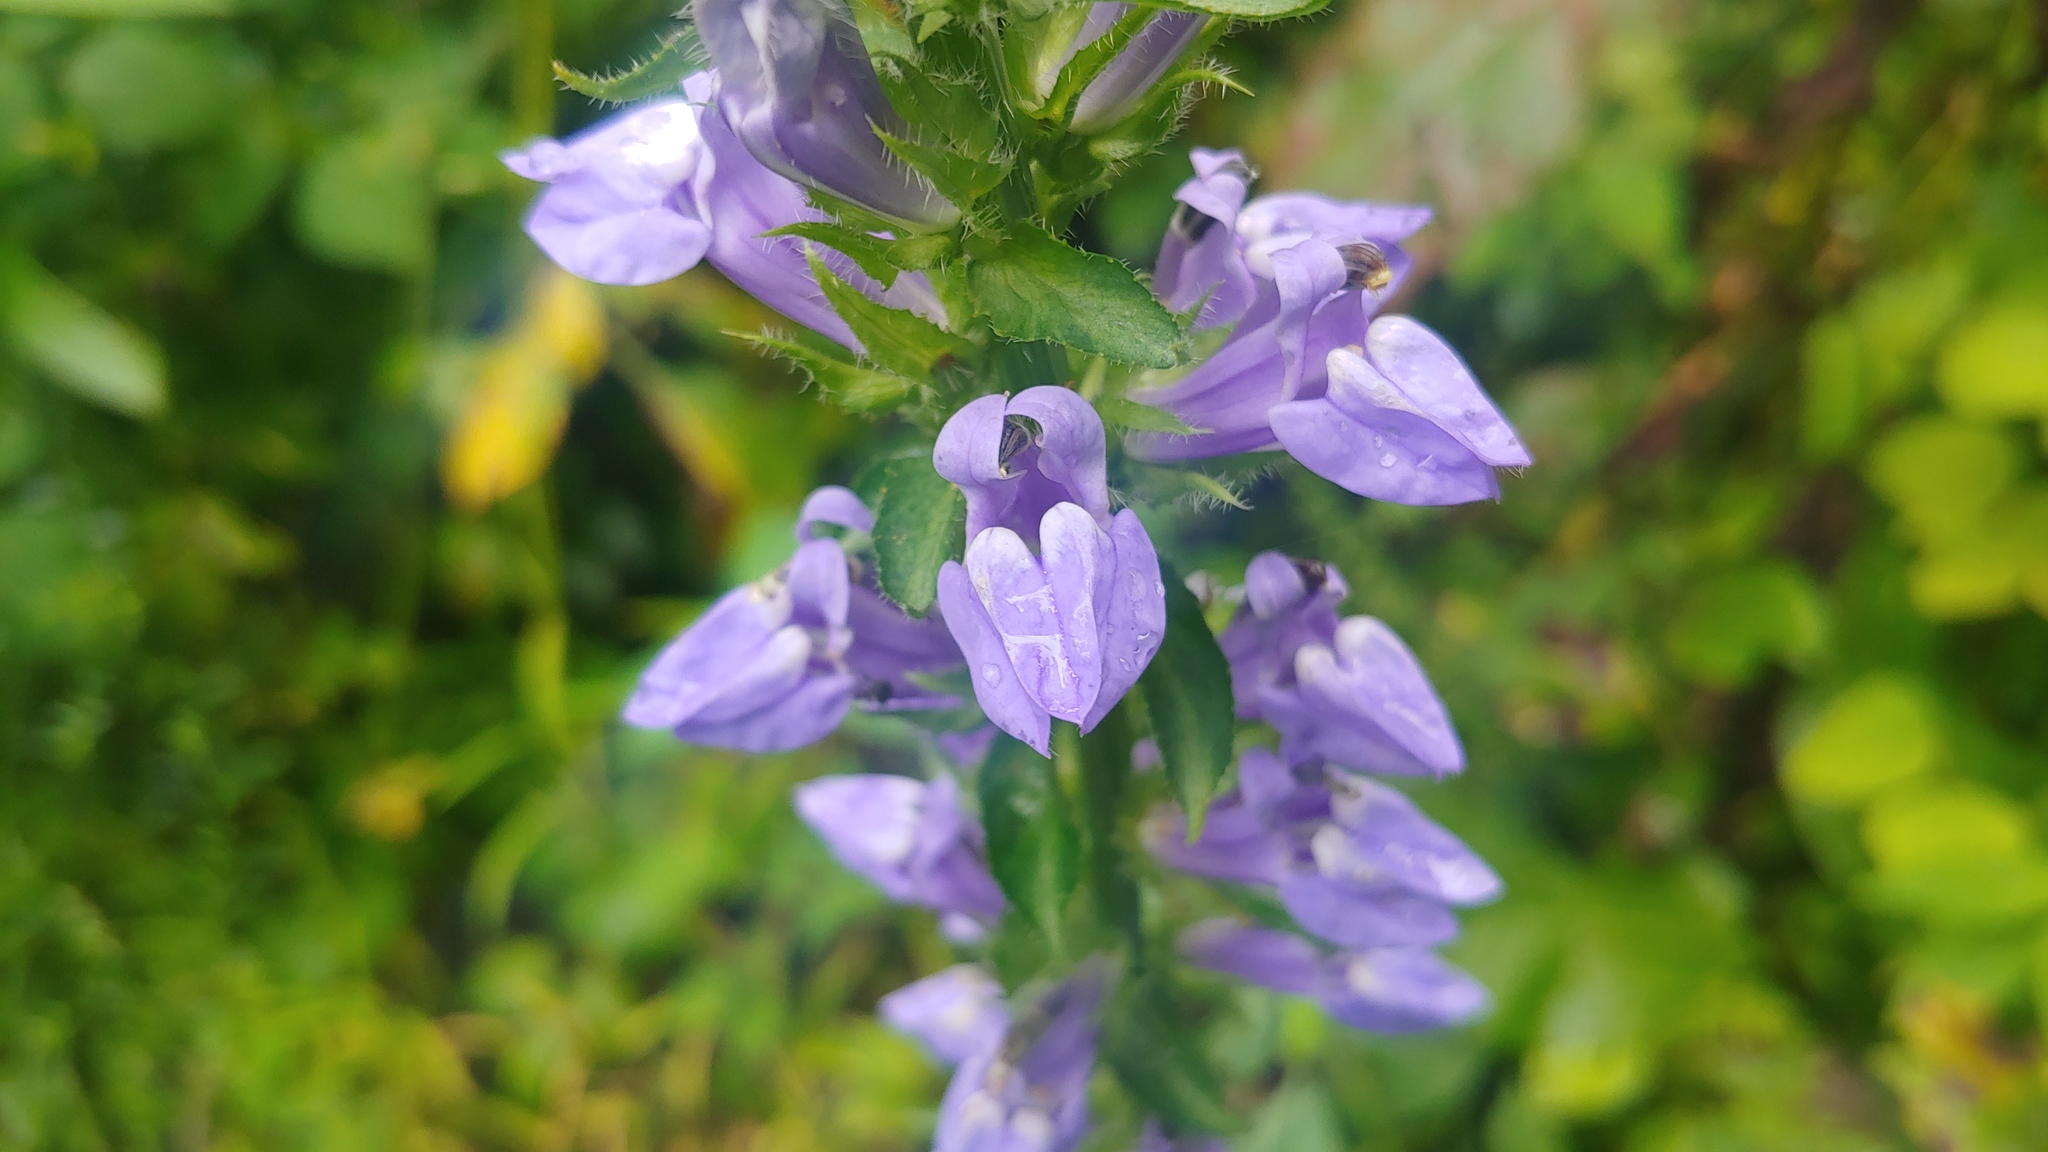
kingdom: Plantae
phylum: Tracheophyta
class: Magnoliopsida
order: Asterales
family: Campanulaceae
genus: Lobelia
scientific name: Lobelia siphilitica
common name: Great lobelia
